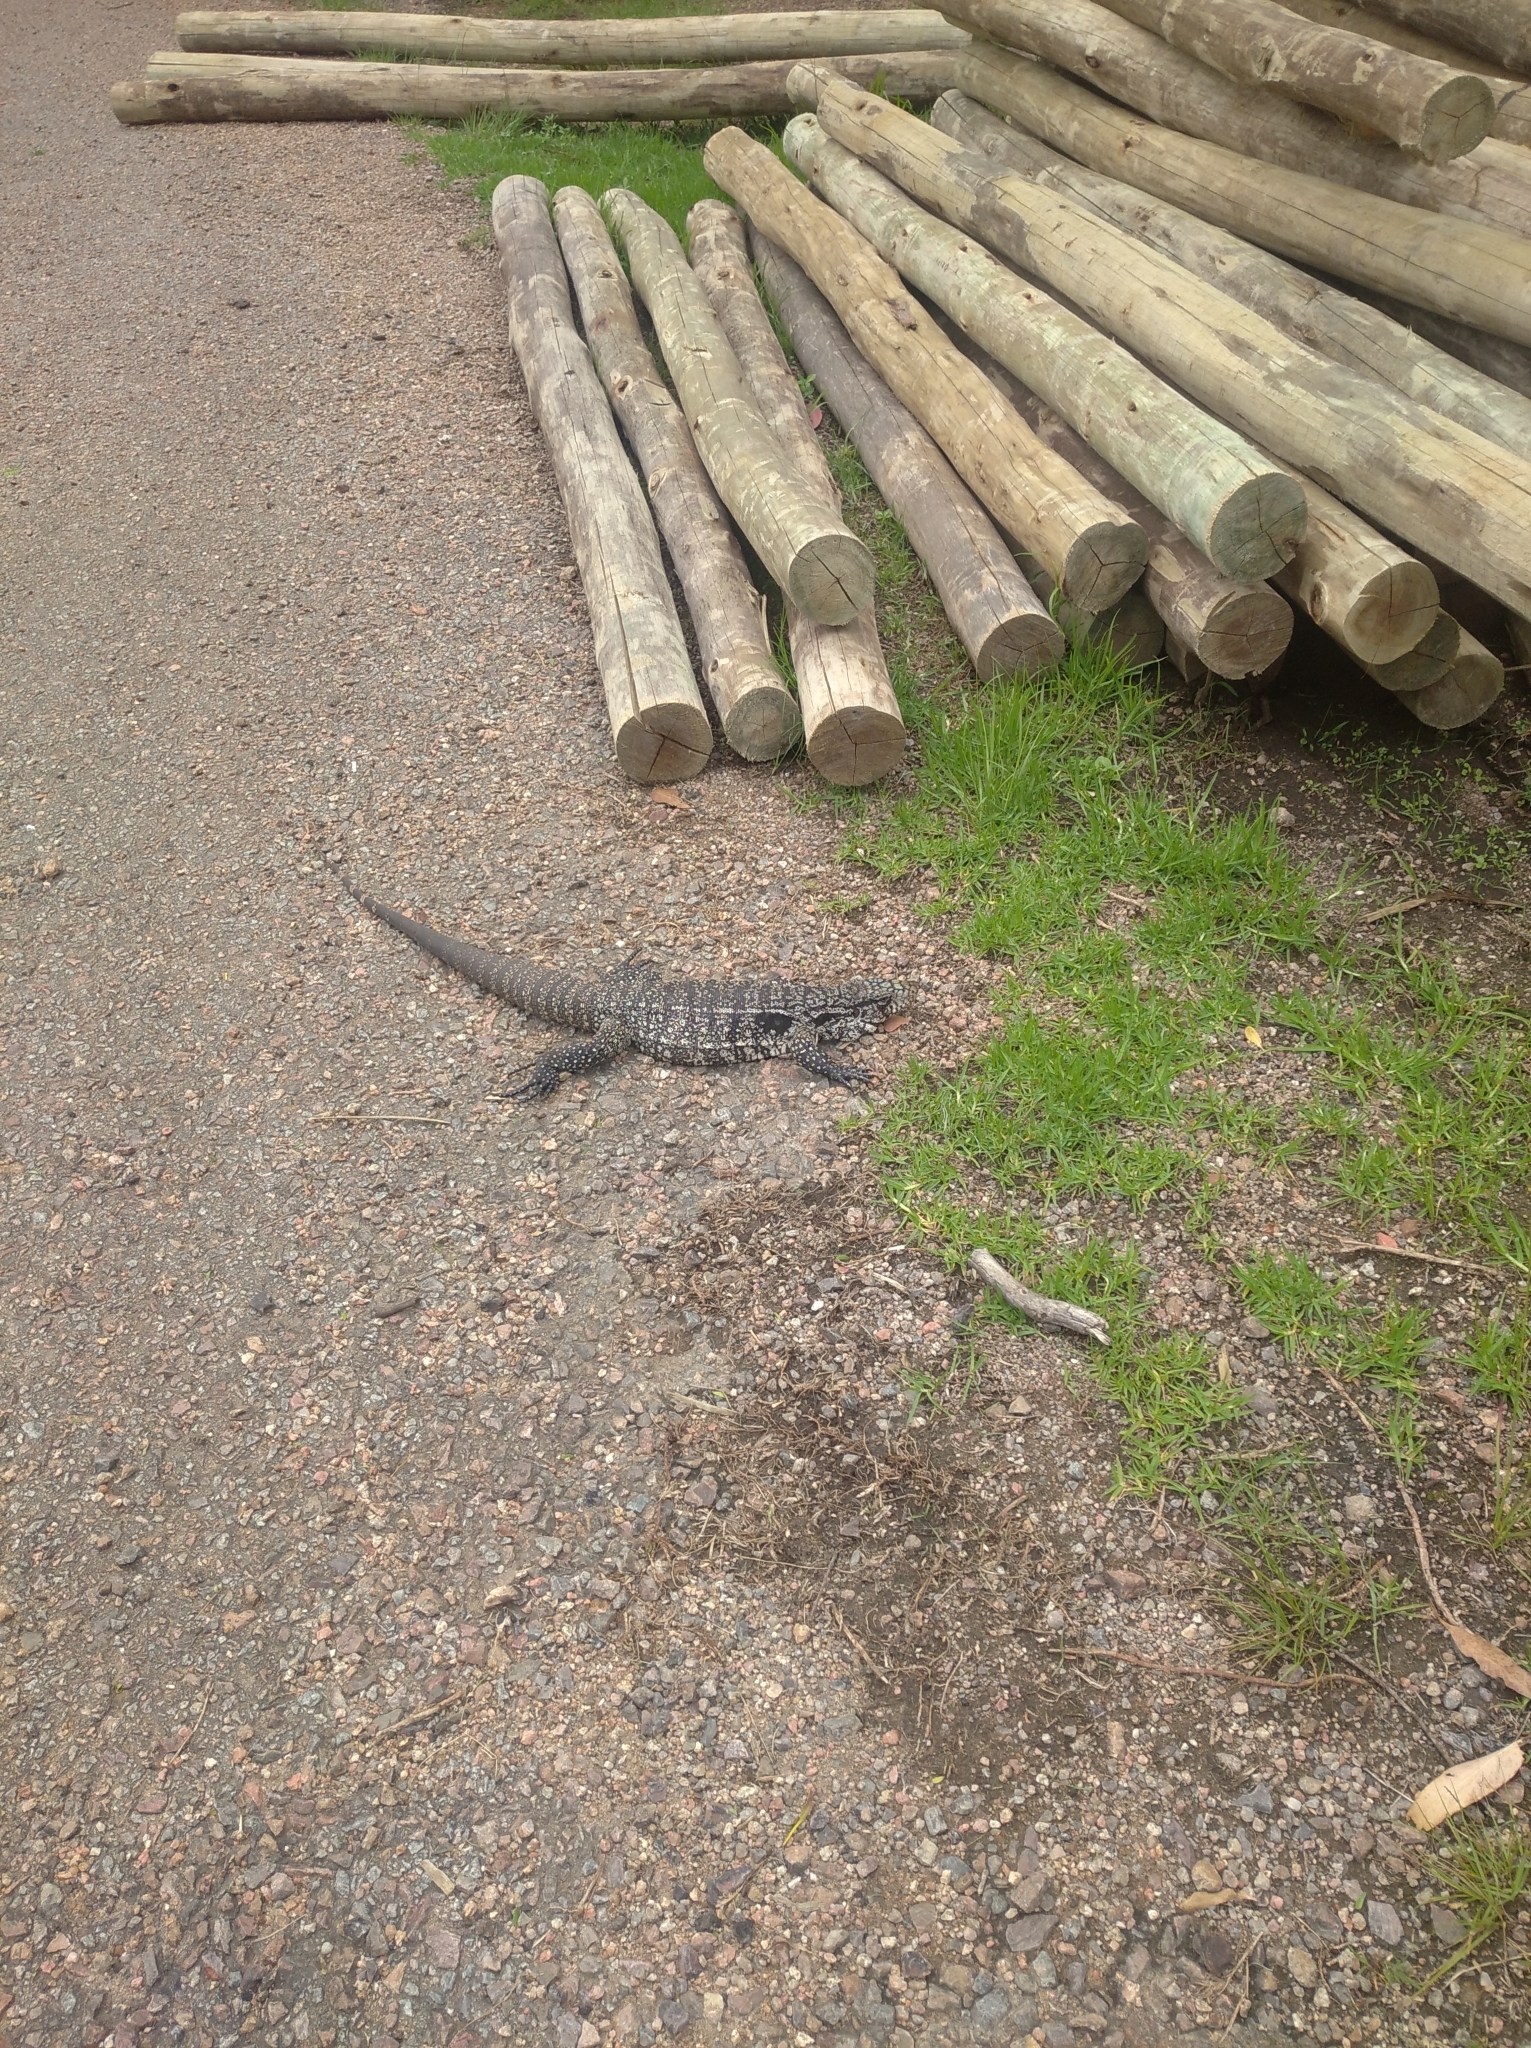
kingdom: Animalia
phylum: Chordata
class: Squamata
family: Teiidae
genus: Salvator
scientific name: Salvator merianae
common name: Argentine black and white tegu
